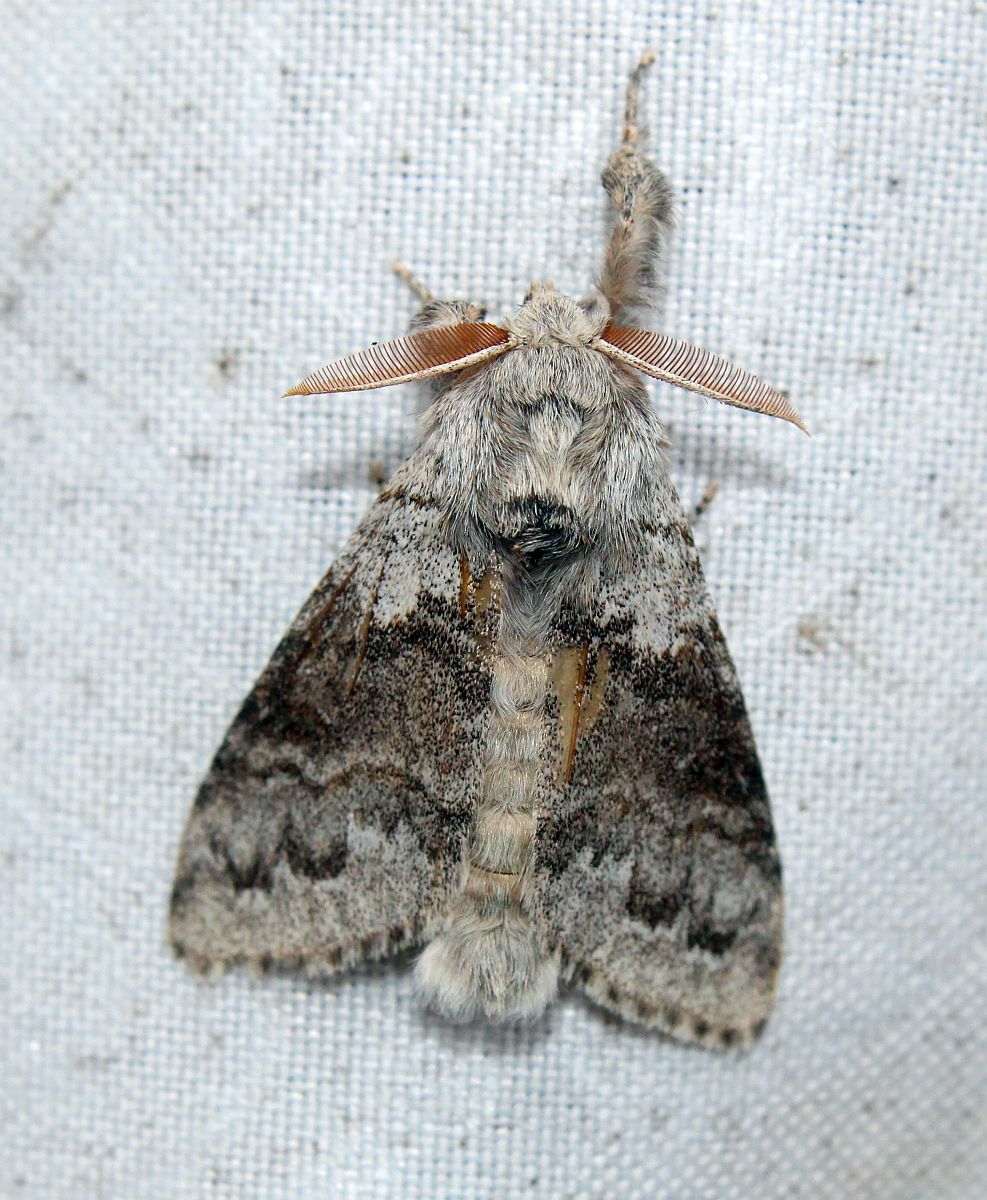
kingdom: Animalia
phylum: Arthropoda
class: Insecta
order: Lepidoptera
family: Erebidae
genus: Calliteara
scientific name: Calliteara pudibunda
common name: Pale tussock
